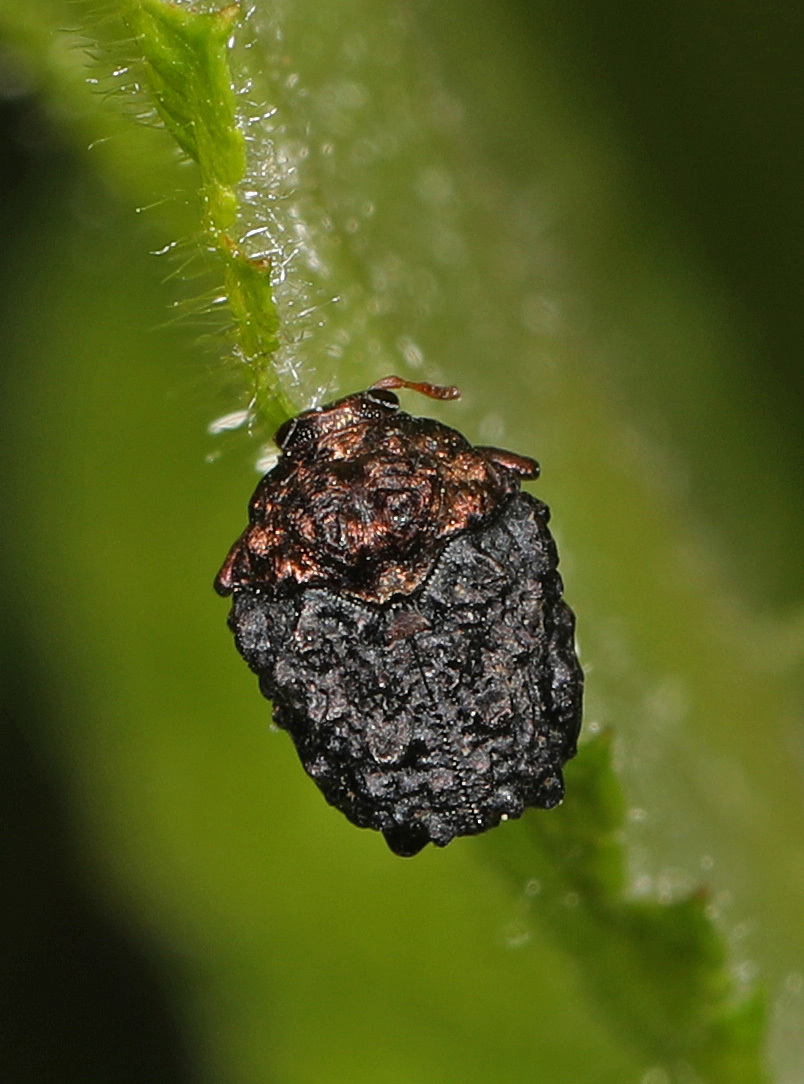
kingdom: Animalia
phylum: Arthropoda
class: Insecta
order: Coleoptera
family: Chrysomelidae
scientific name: Chrysomelidae
